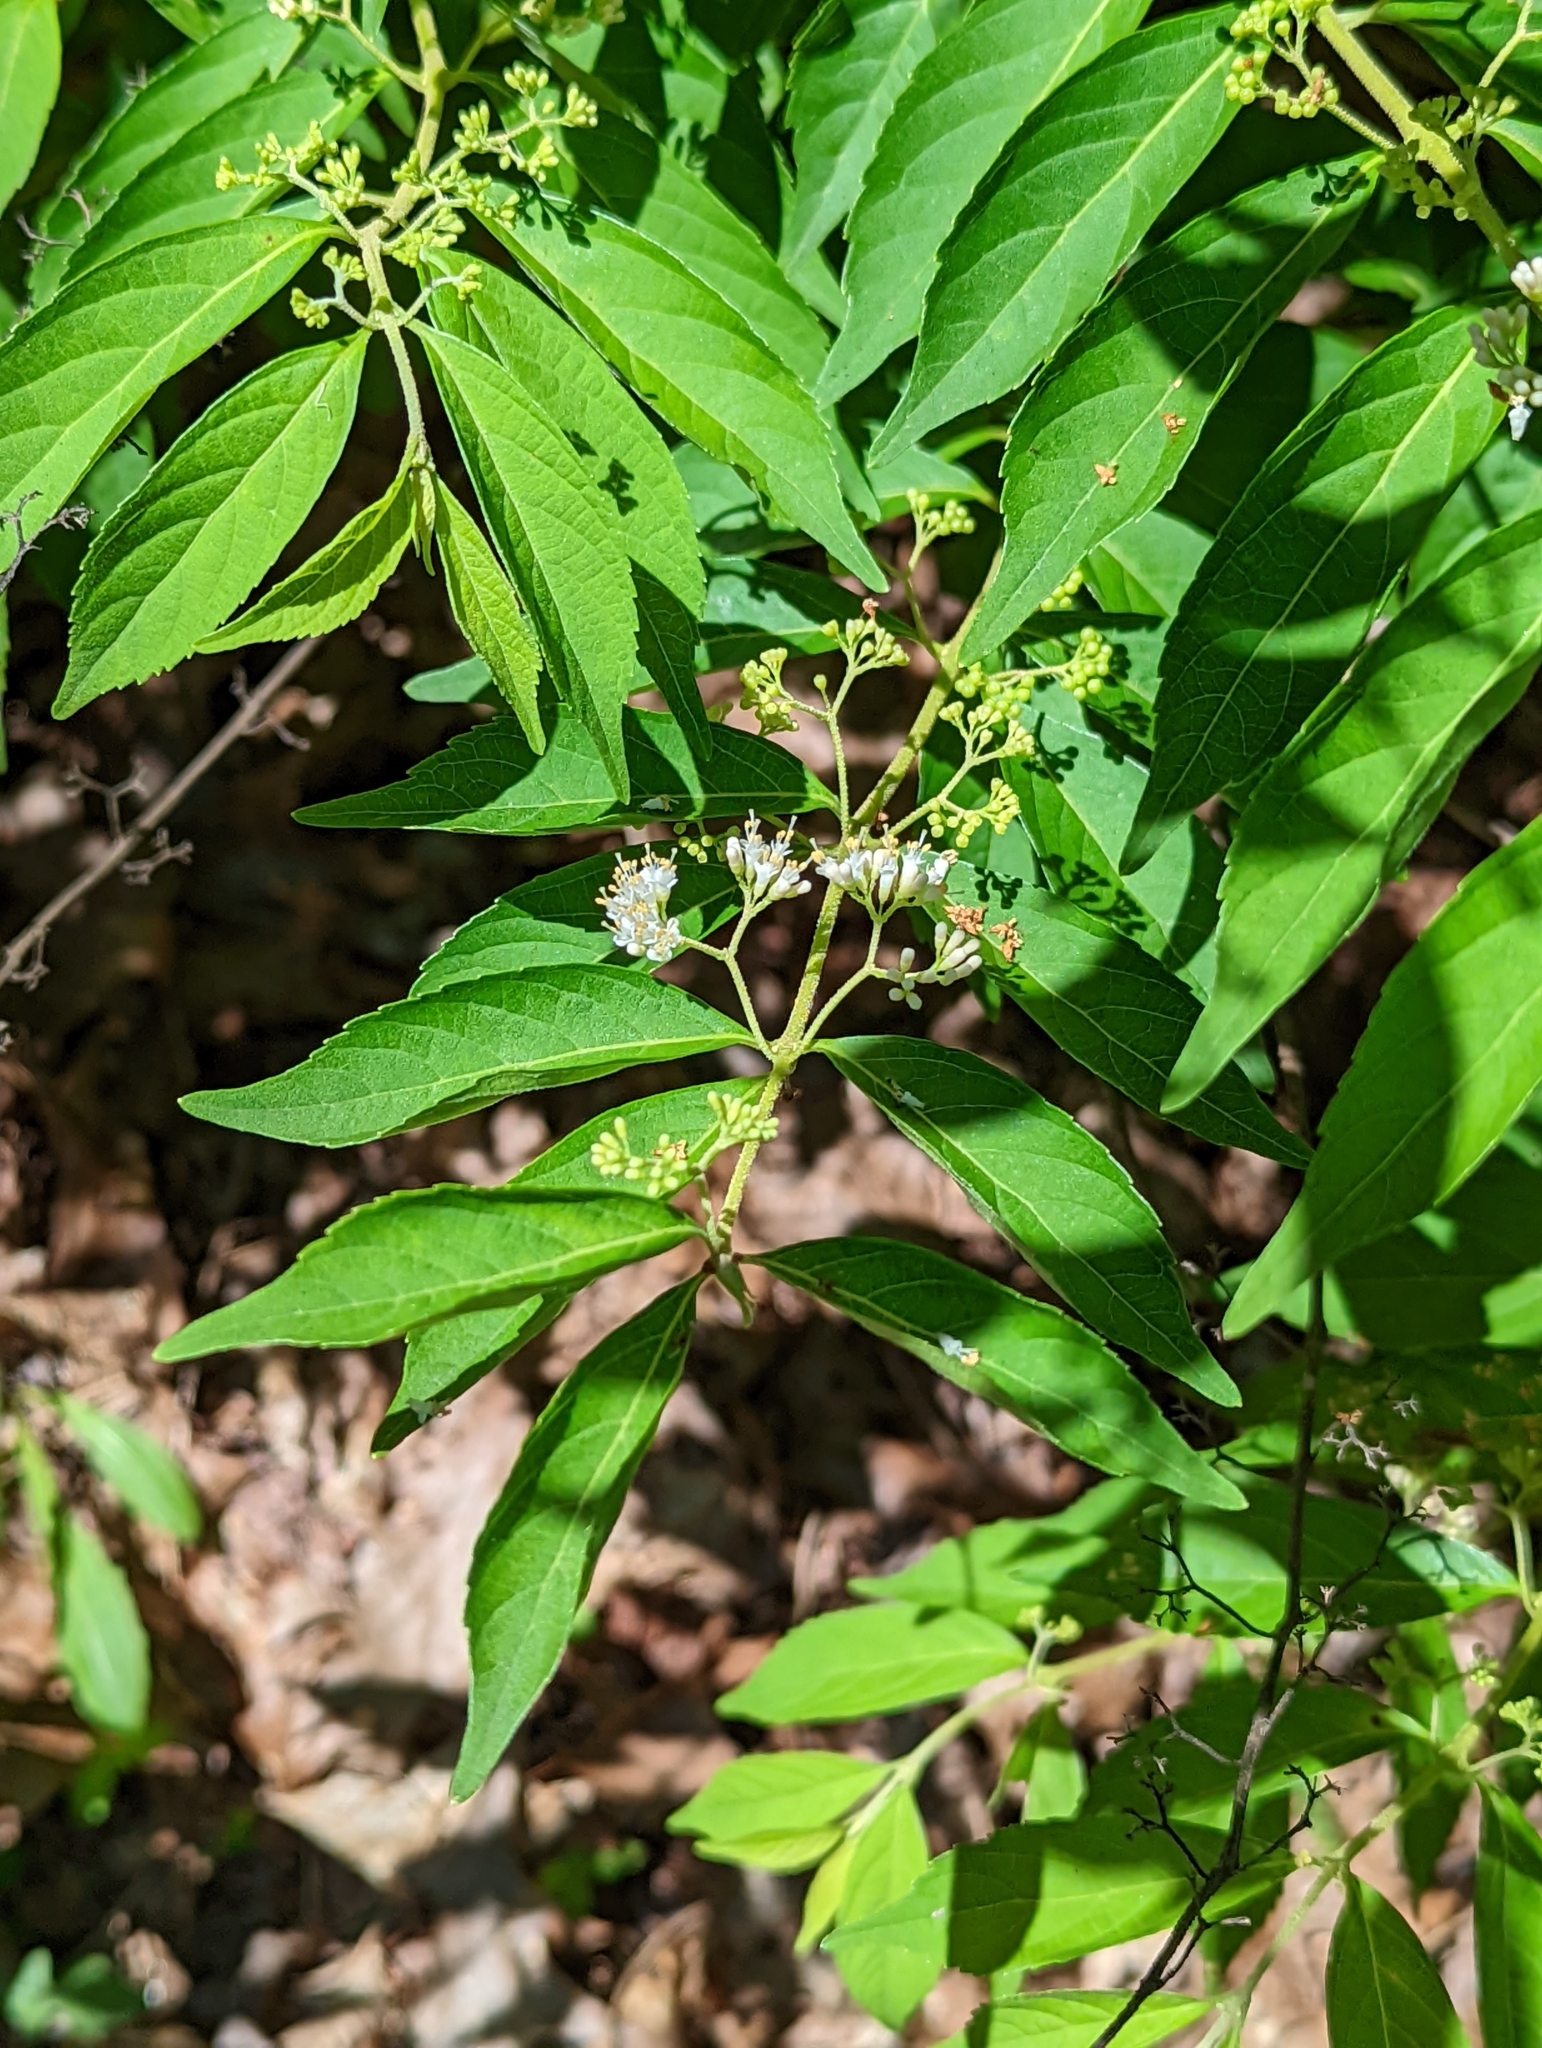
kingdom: Plantae
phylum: Tracheophyta
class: Magnoliopsida
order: Lamiales
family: Lamiaceae
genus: Callicarpa
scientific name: Callicarpa dichotoma
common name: Purple beauty-berry
